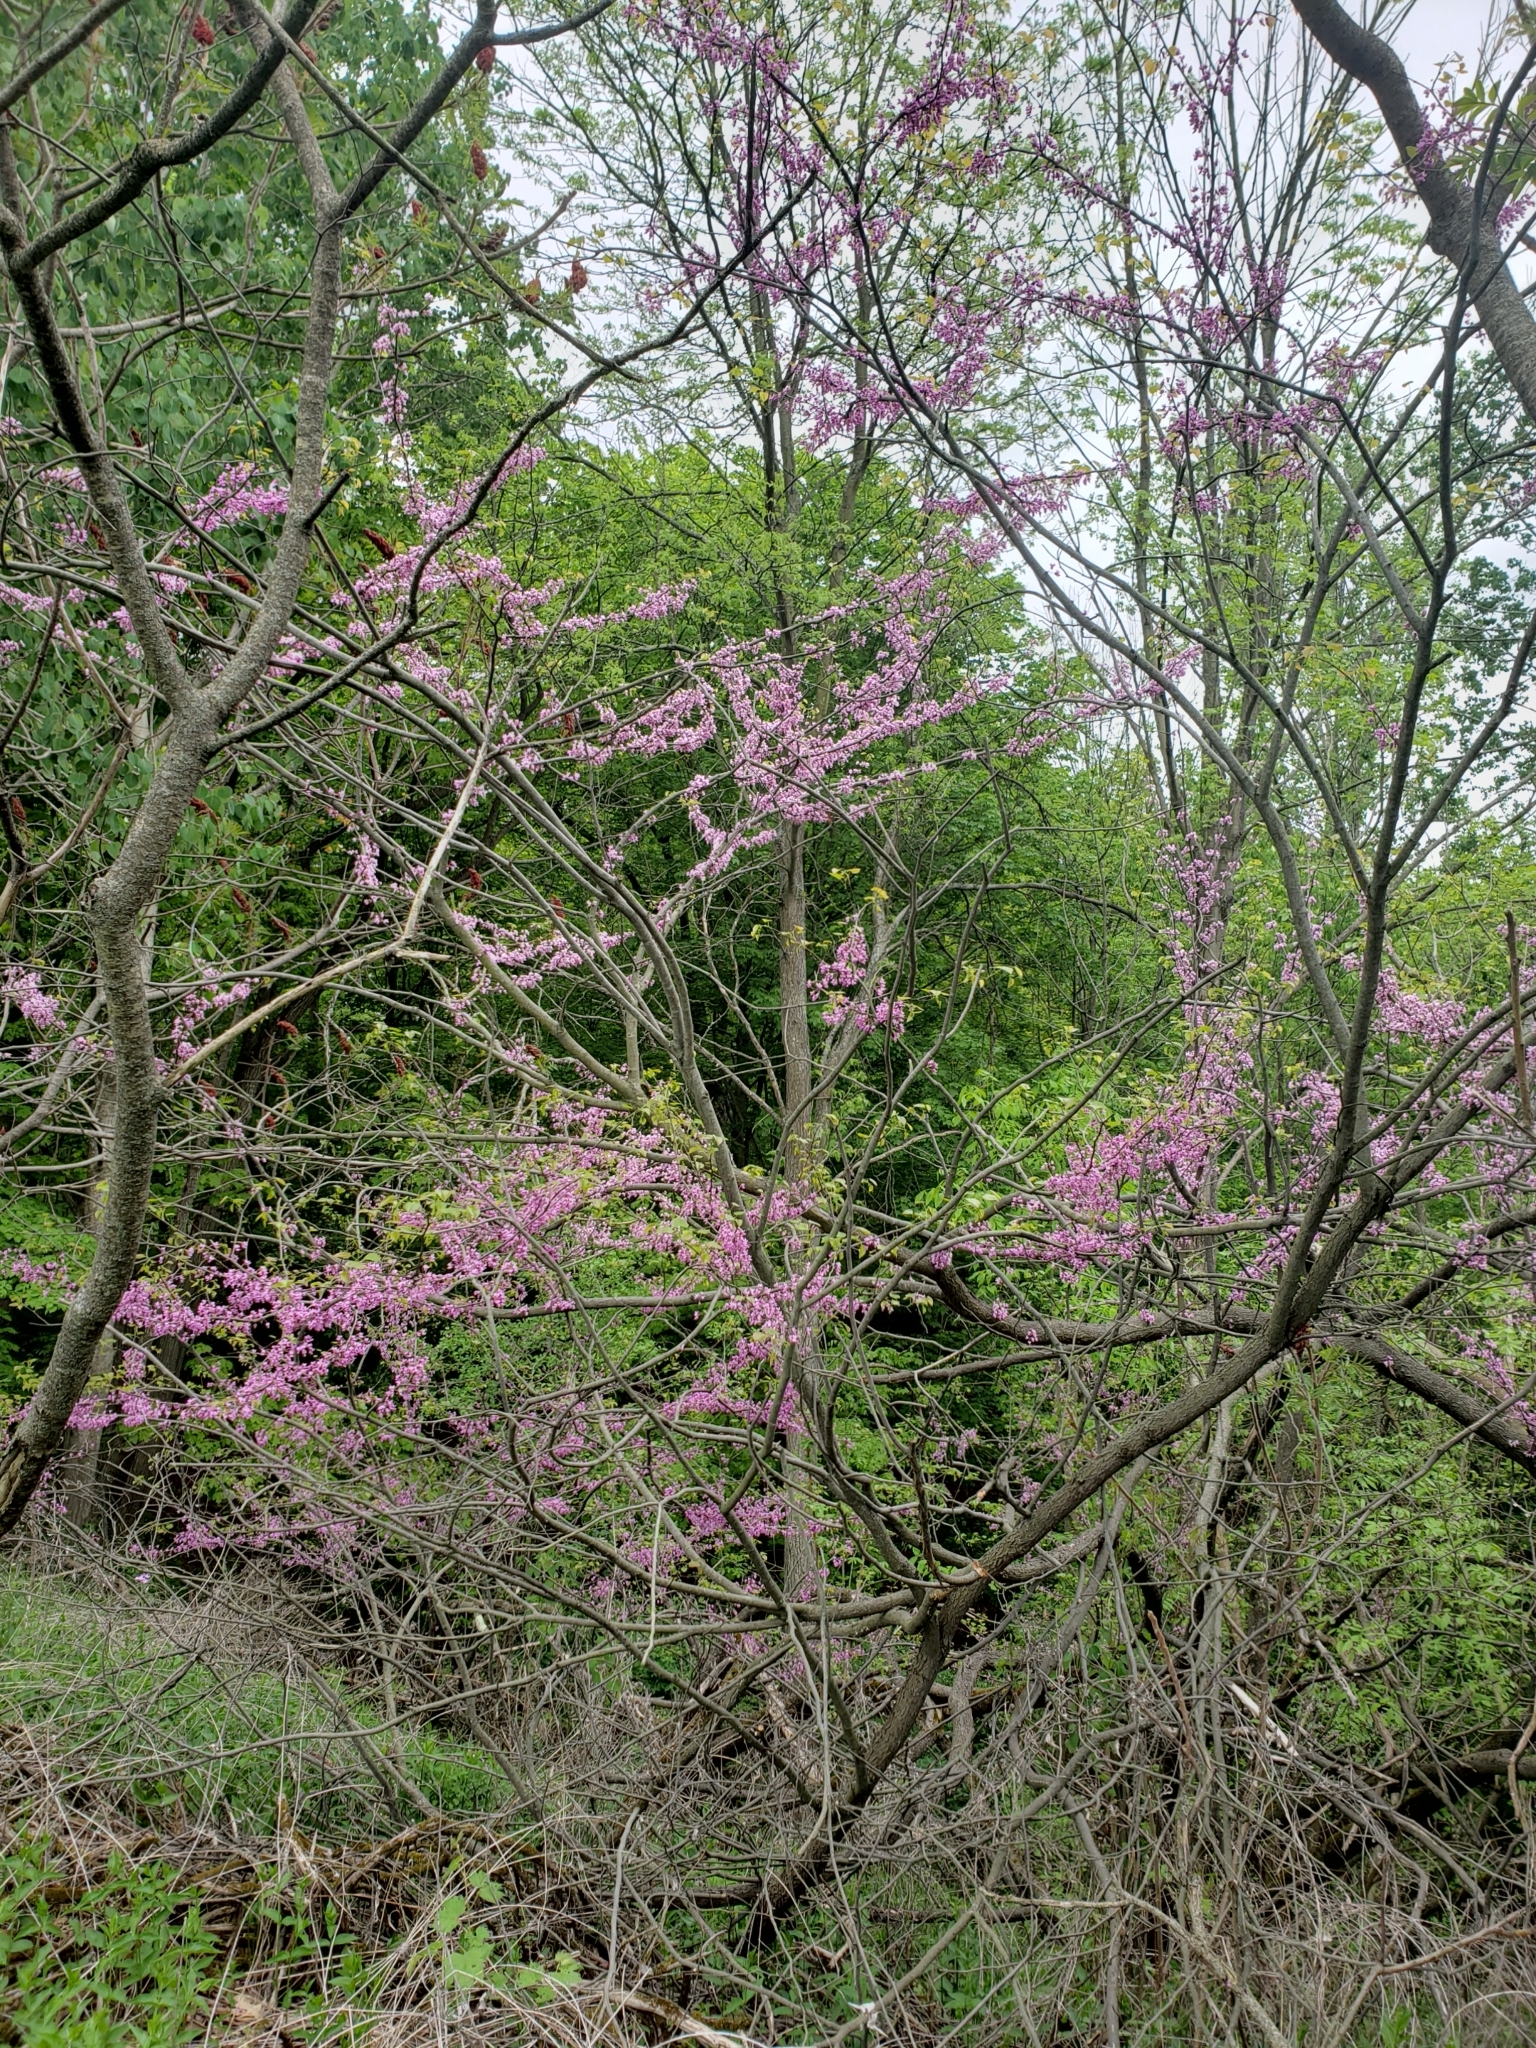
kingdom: Plantae
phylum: Tracheophyta
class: Magnoliopsida
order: Fabales
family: Fabaceae
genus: Cercis
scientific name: Cercis canadensis
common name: Eastern redbud
